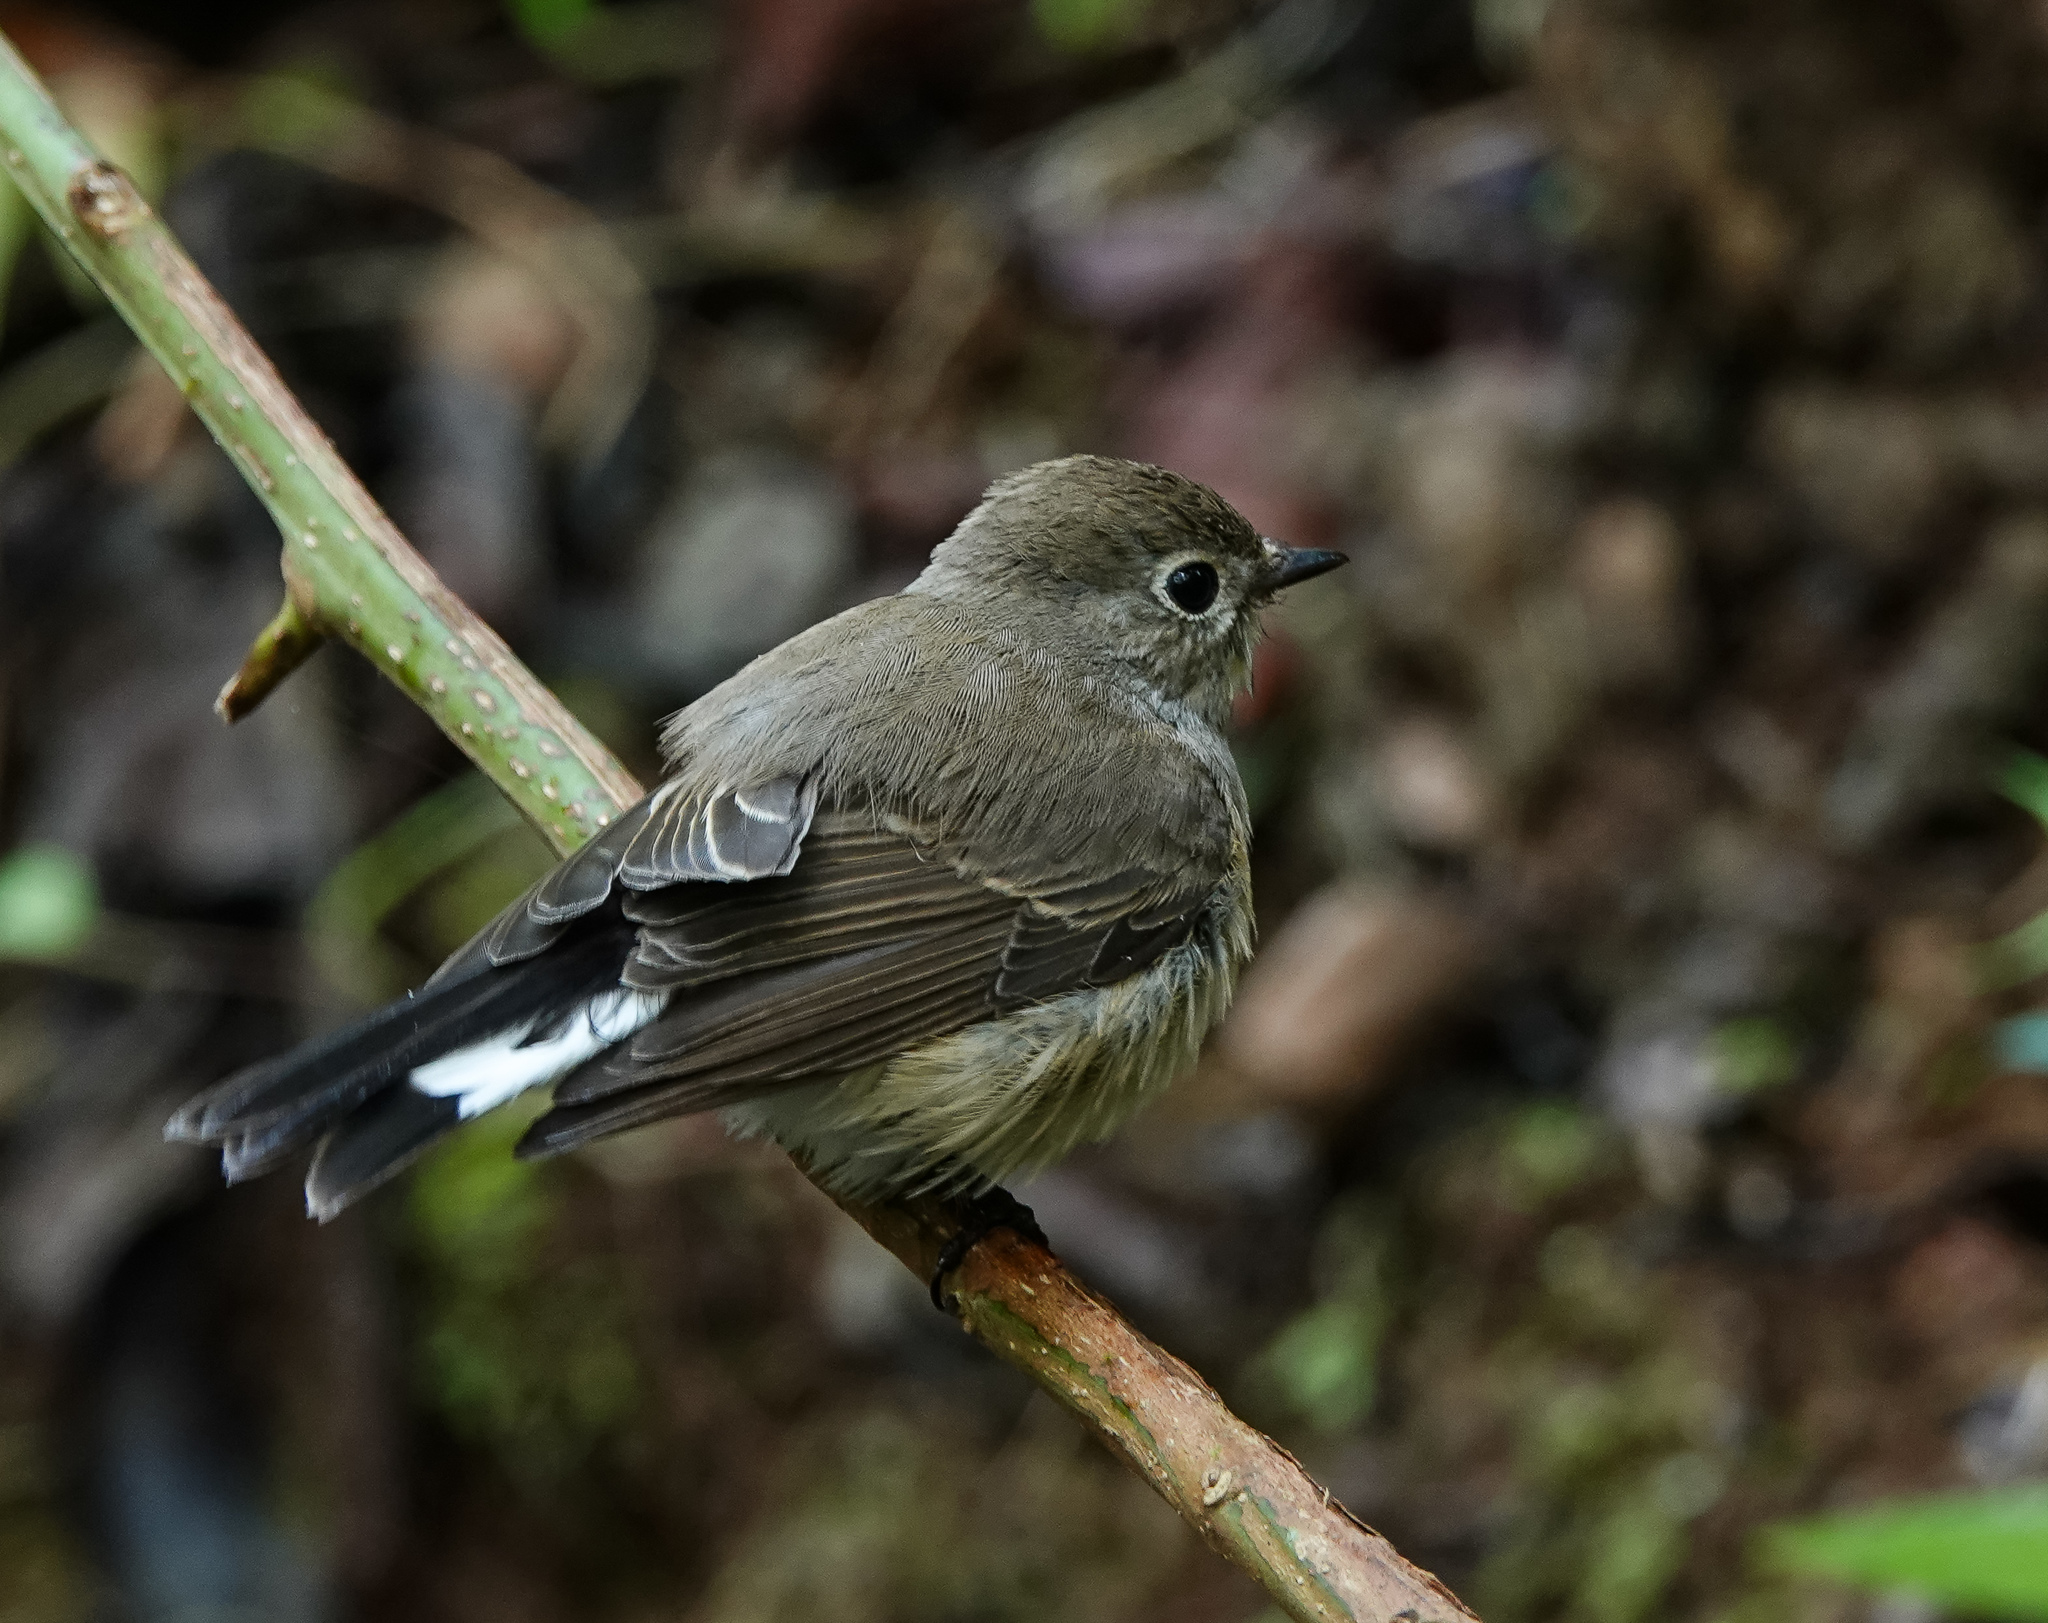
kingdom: Animalia
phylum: Chordata
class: Aves
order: Passeriformes
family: Muscicapidae
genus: Ficedula
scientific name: Ficedula westermanni
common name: Little pied flycatcher
